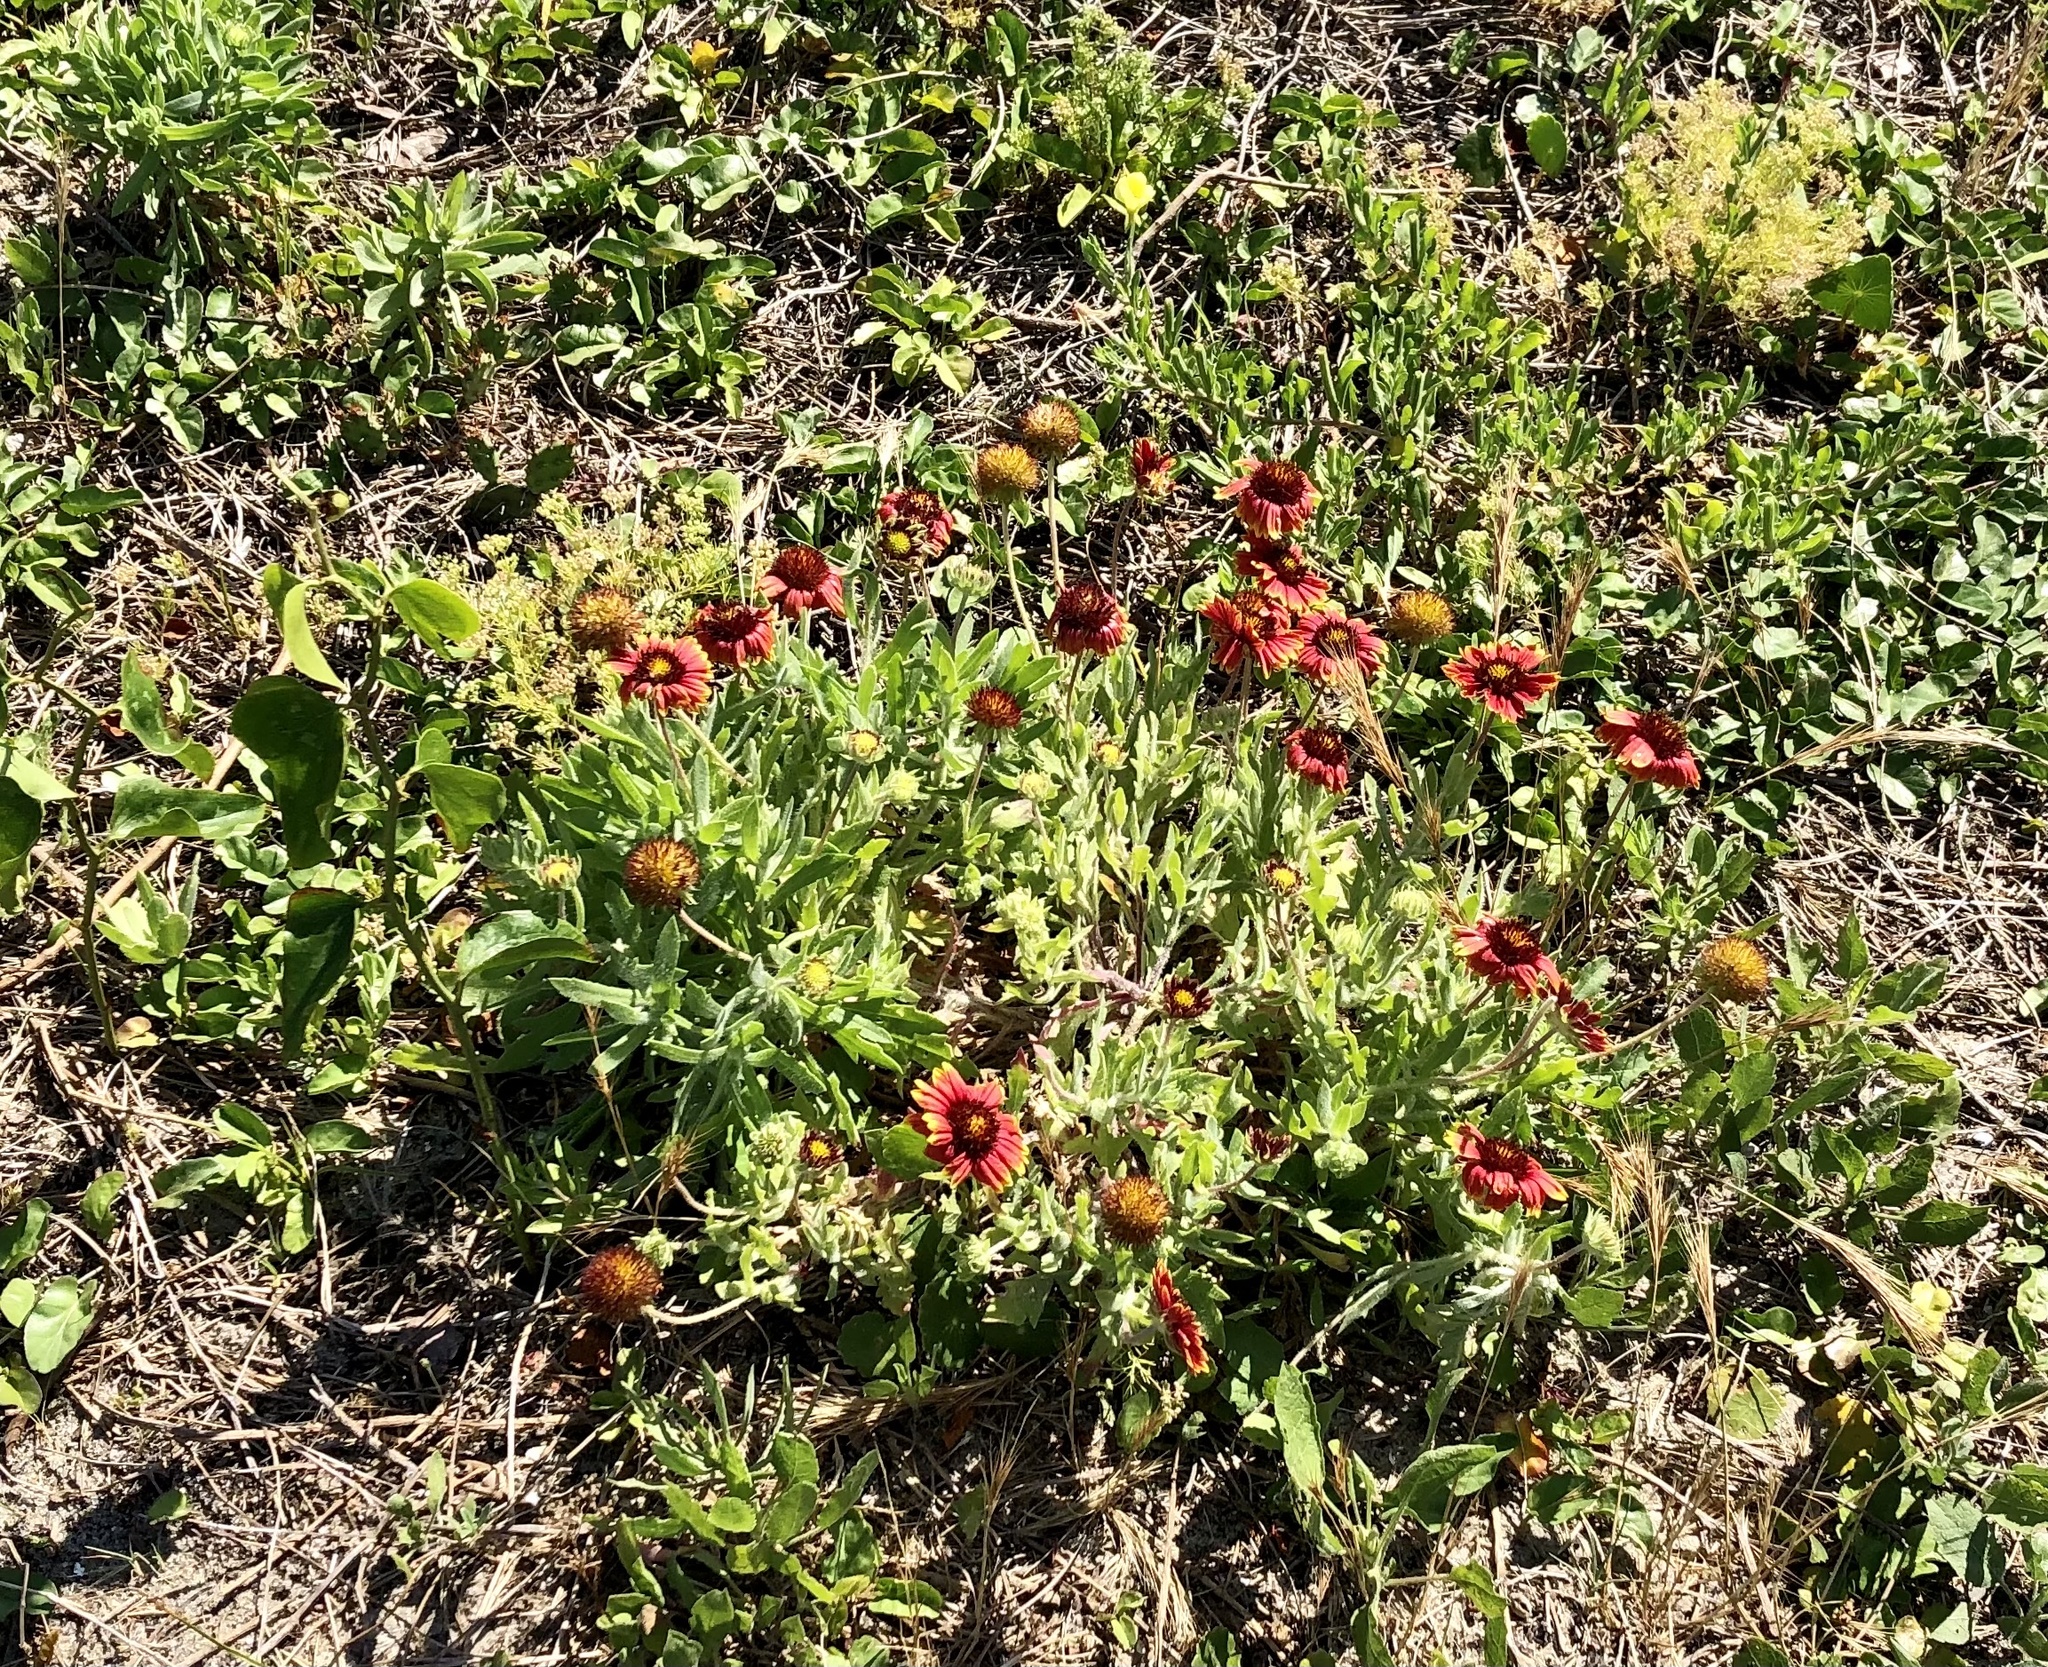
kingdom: Plantae
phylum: Tracheophyta
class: Magnoliopsida
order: Asterales
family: Asteraceae
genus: Gaillardia
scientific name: Gaillardia pulchella
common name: Firewheel
